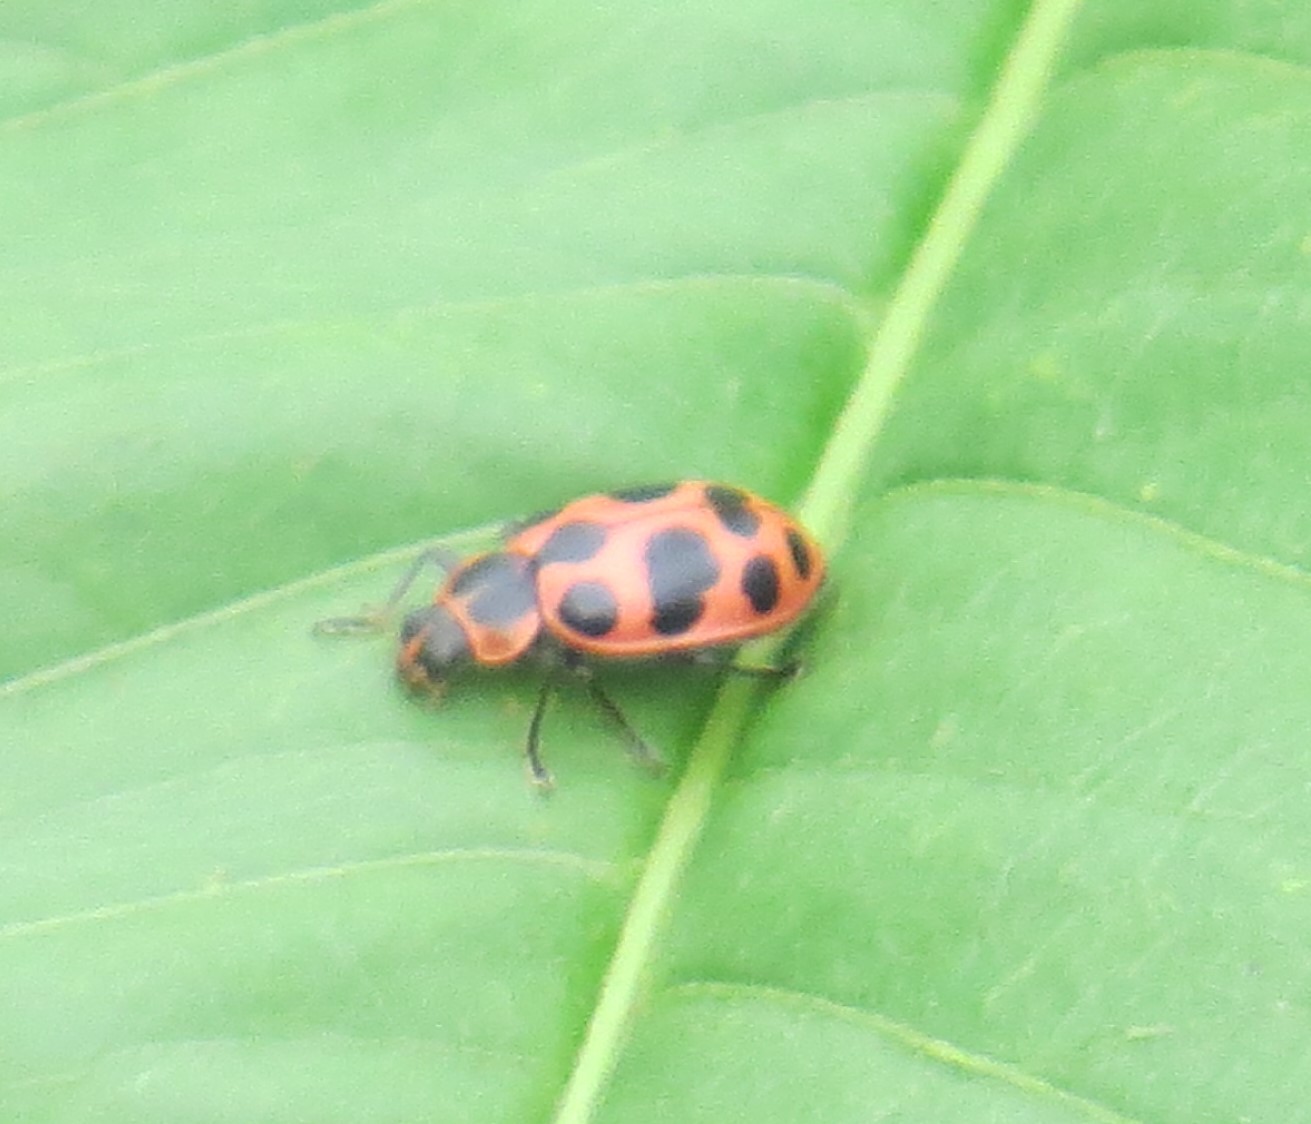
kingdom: Animalia
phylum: Arthropoda
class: Insecta
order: Coleoptera
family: Coccinellidae
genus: Coleomegilla
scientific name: Coleomegilla maculata
